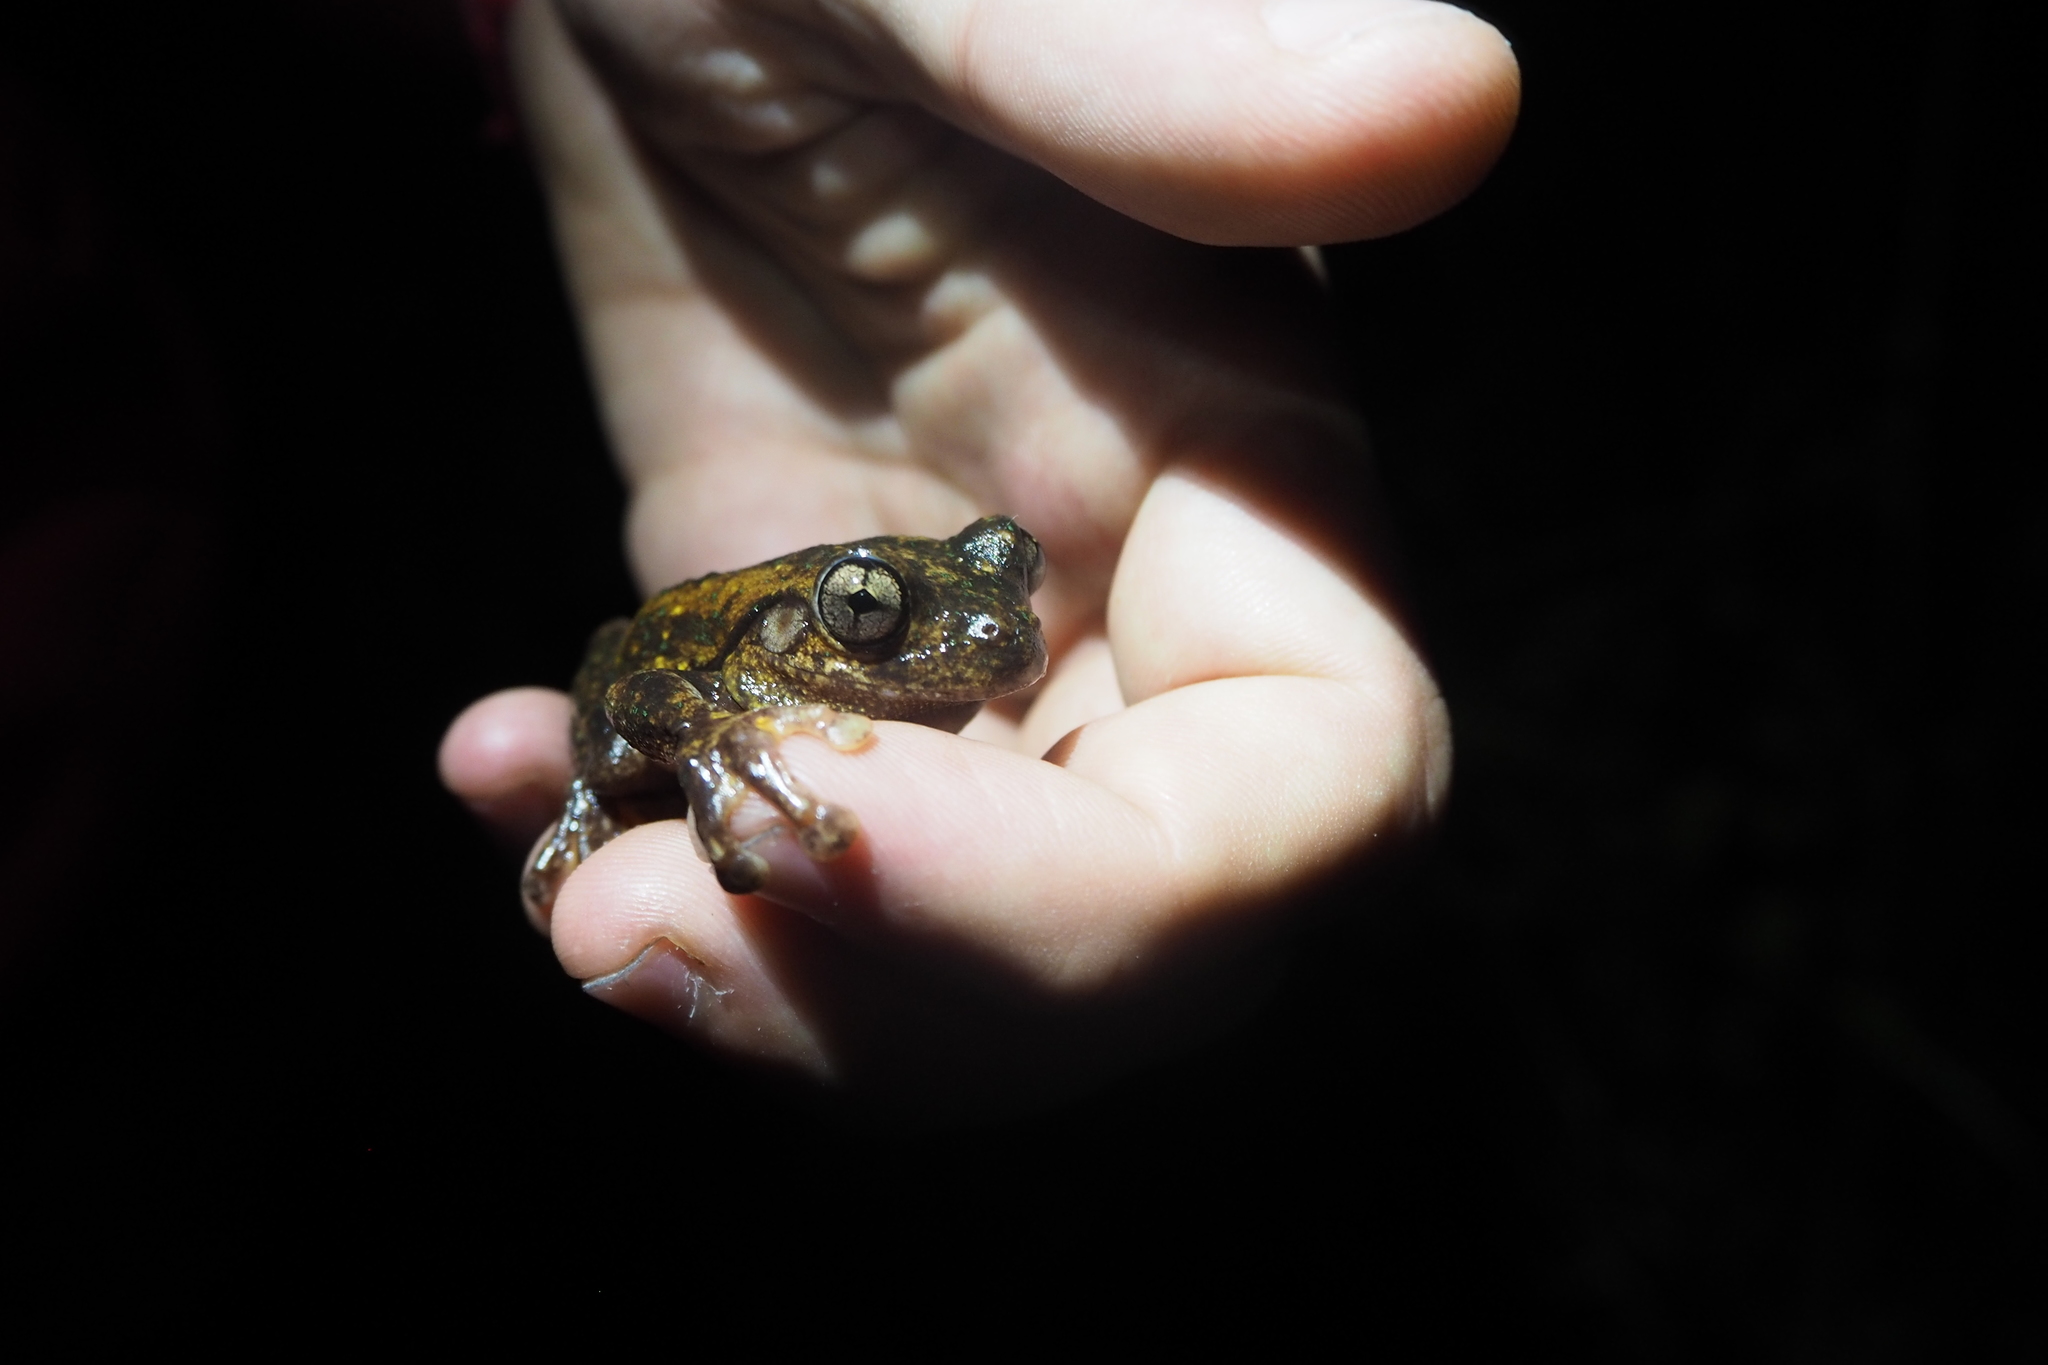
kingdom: Animalia
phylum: Chordata
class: Amphibia
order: Anura
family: Pelodryadidae
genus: Litoria
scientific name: Litoria peronii
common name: Emerald spotted treefrog
